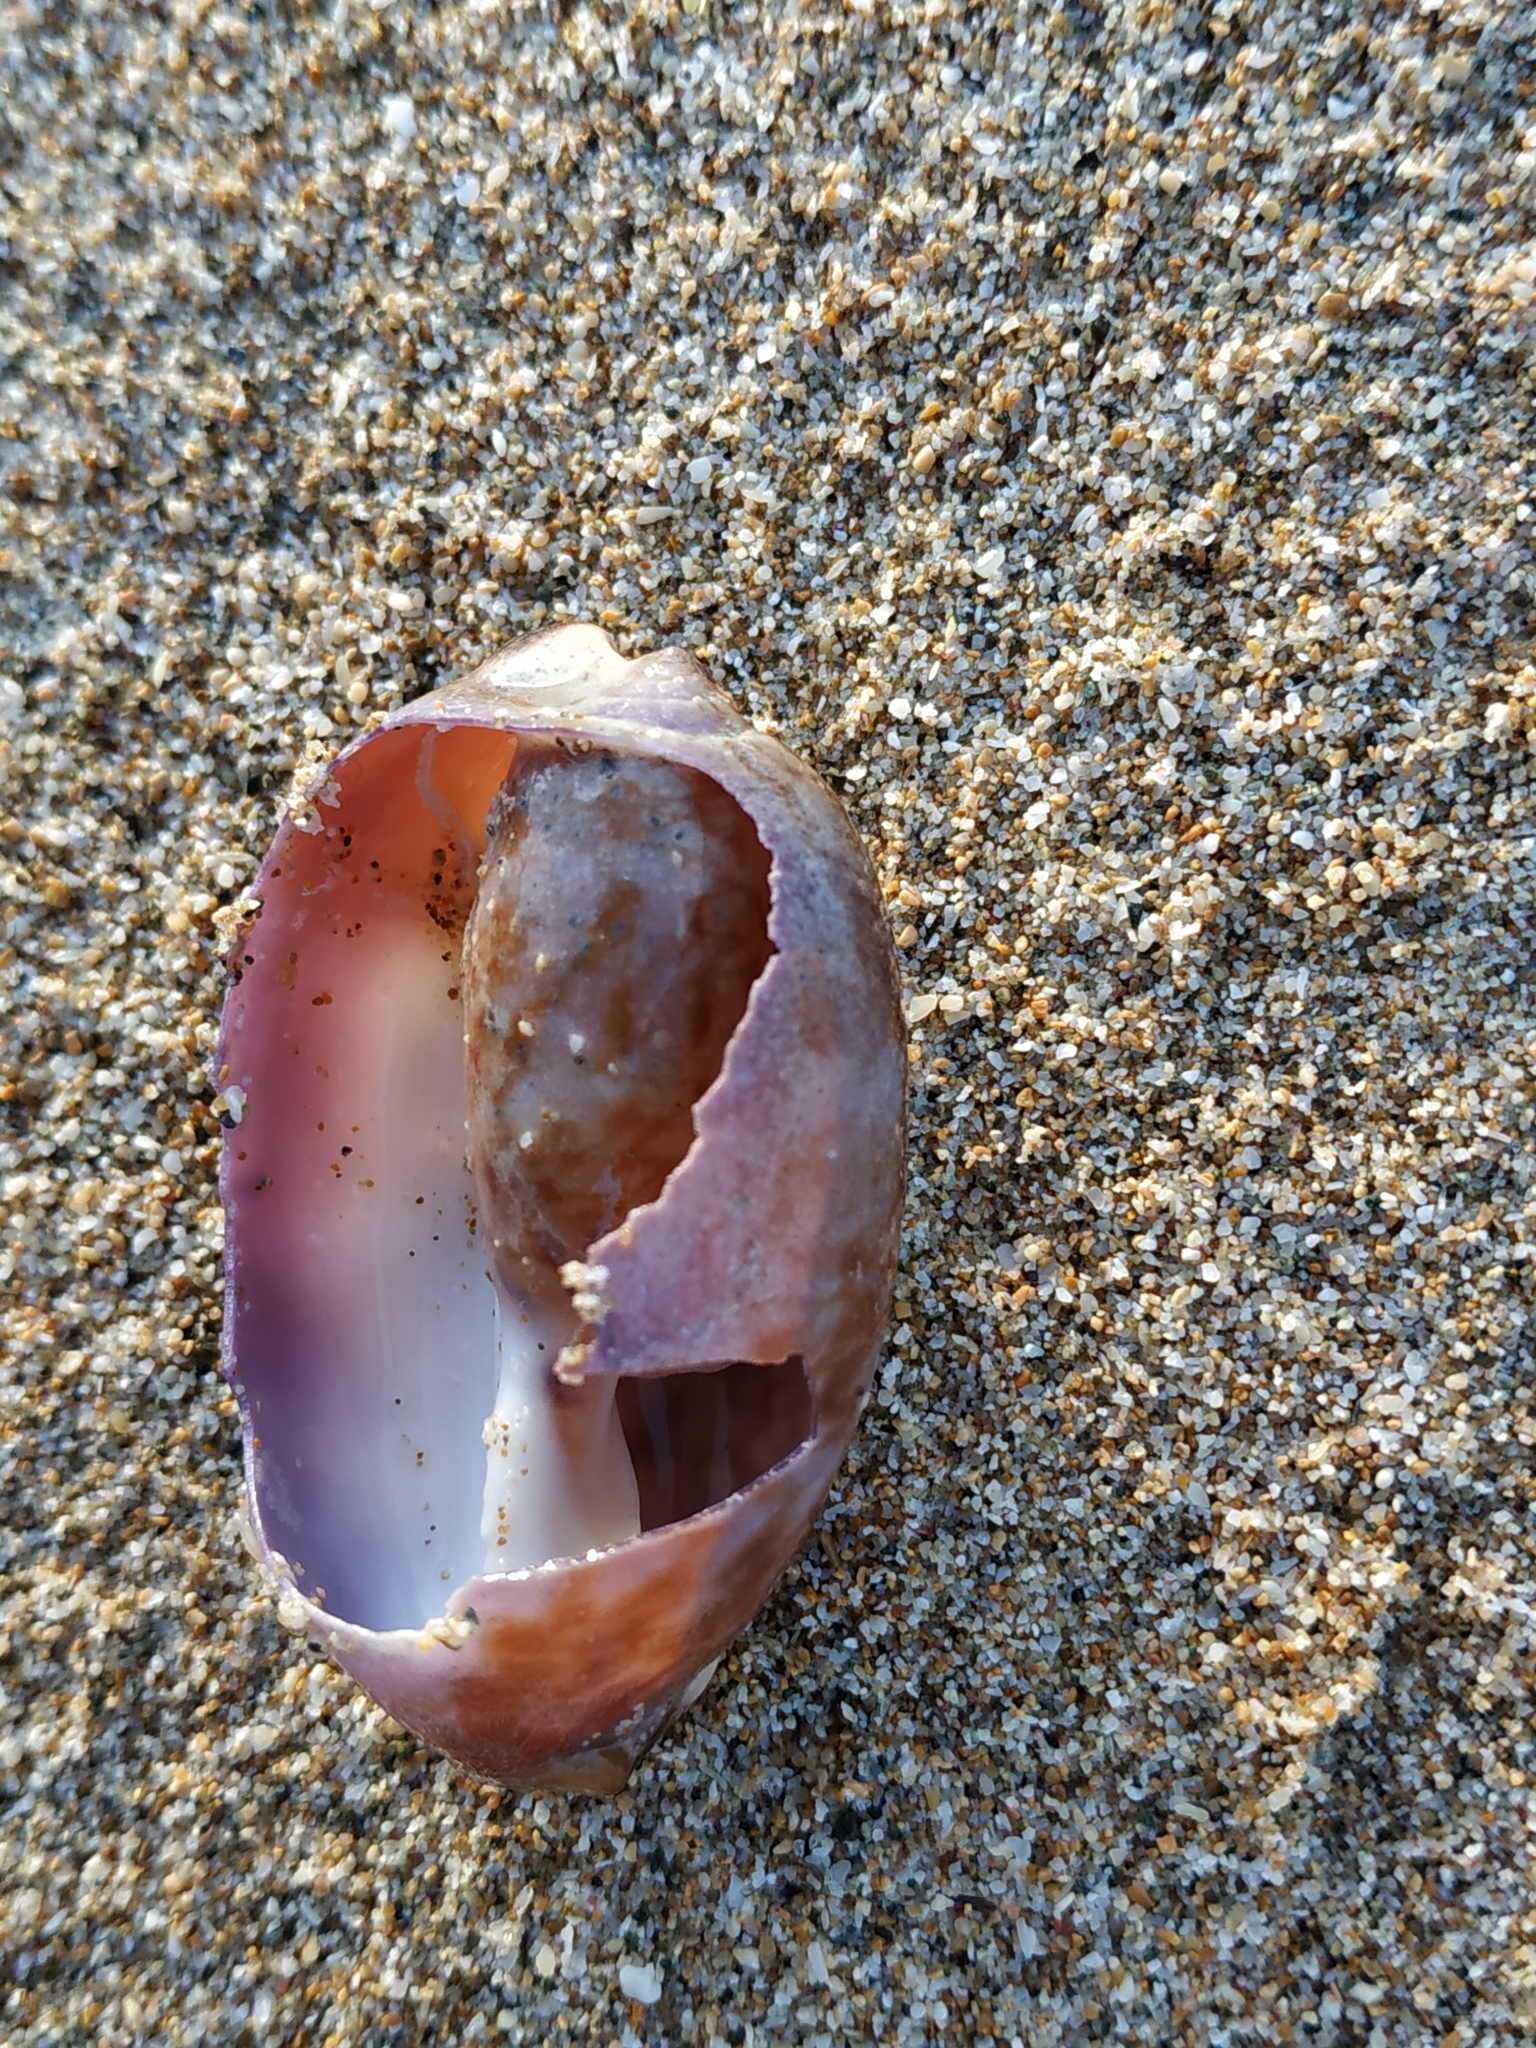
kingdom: Animalia
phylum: Mollusca
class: Gastropoda
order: Littorinimorpha
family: Cypraeidae
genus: Mauritia
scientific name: Mauritia arabica
